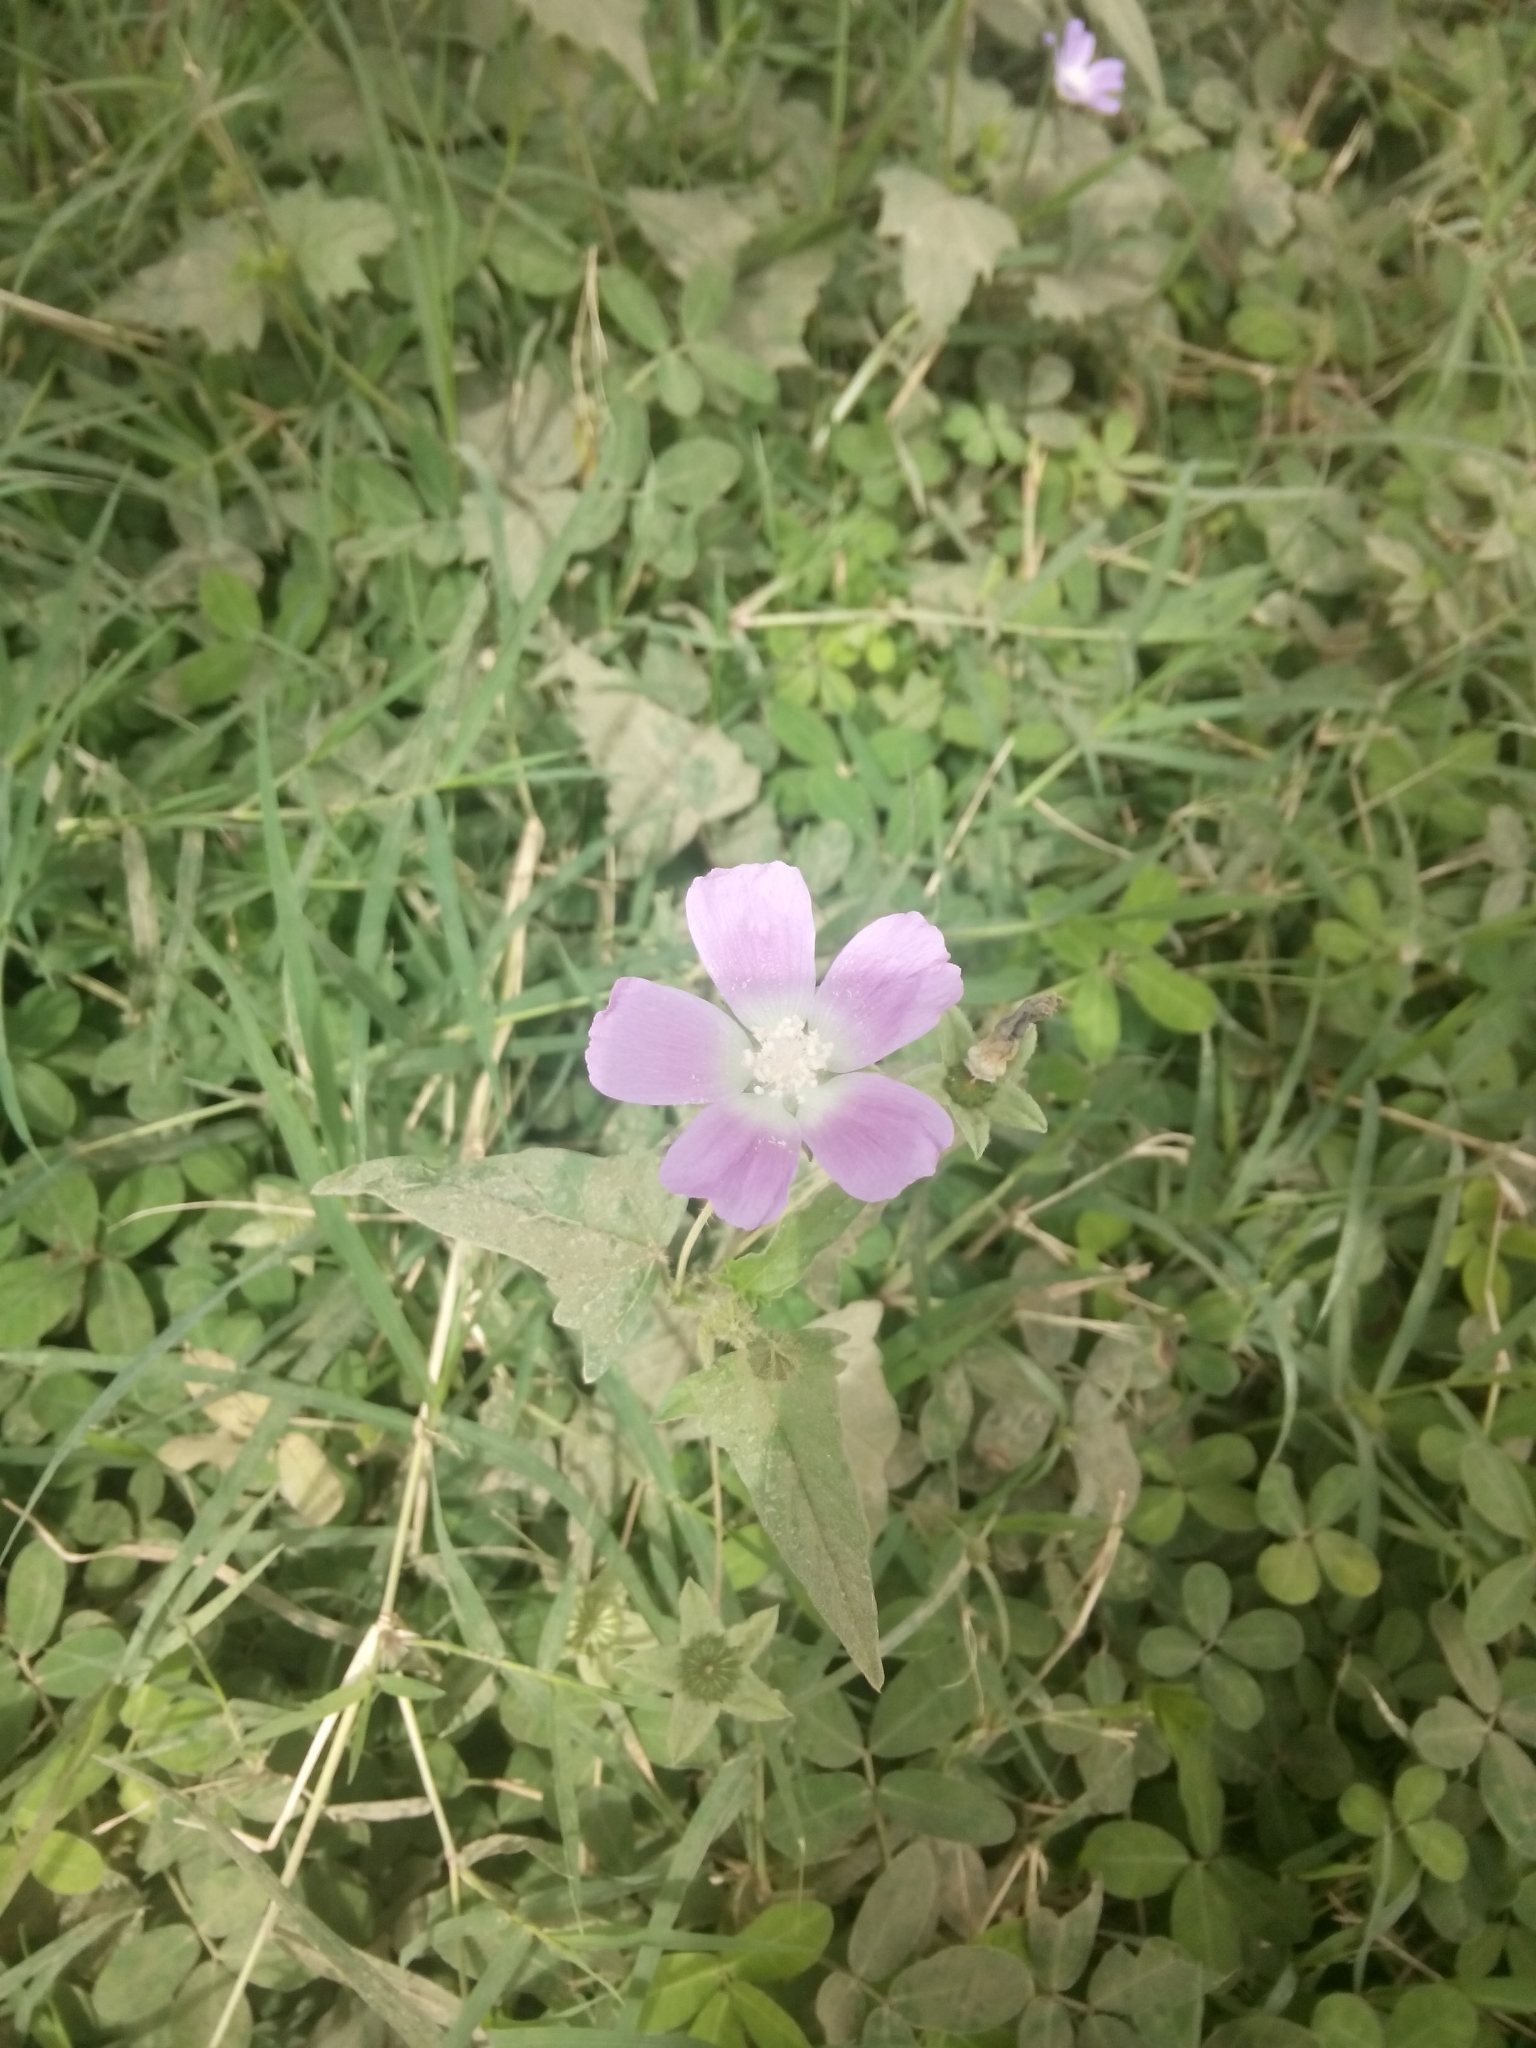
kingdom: Plantae
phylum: Tracheophyta
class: Magnoliopsida
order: Malvales
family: Malvaceae
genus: Anoda
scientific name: Anoda cristata
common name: Spurred anoda
